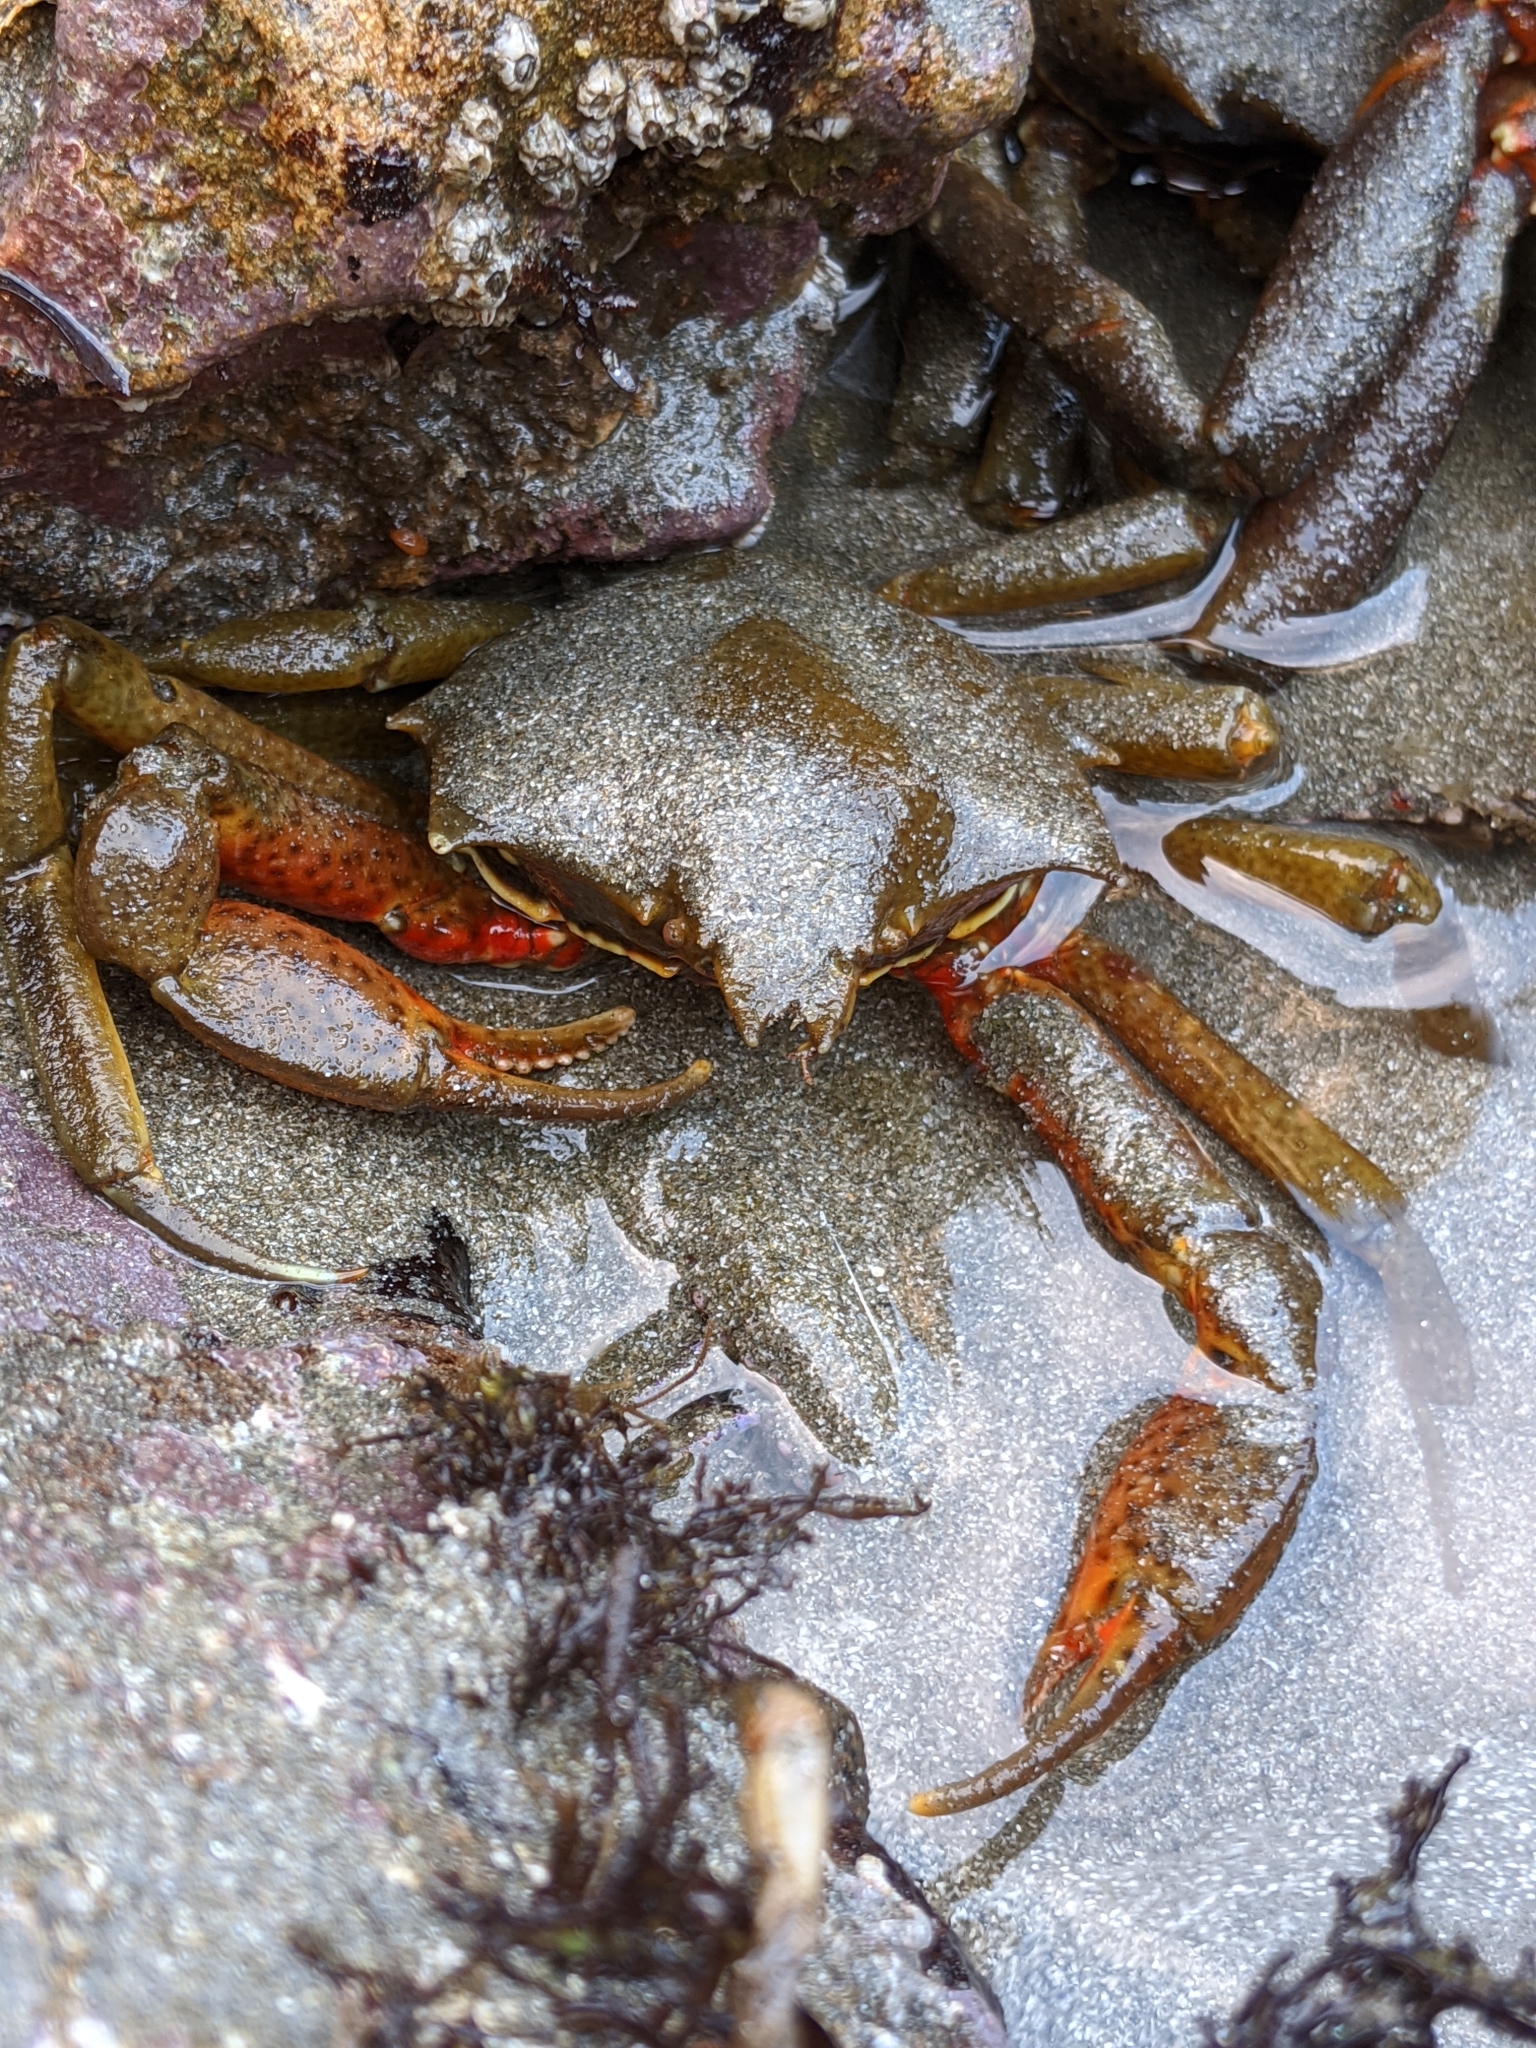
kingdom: Animalia
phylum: Arthropoda
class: Malacostraca
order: Decapoda
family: Epialtidae
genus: Pugettia
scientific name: Pugettia producta
